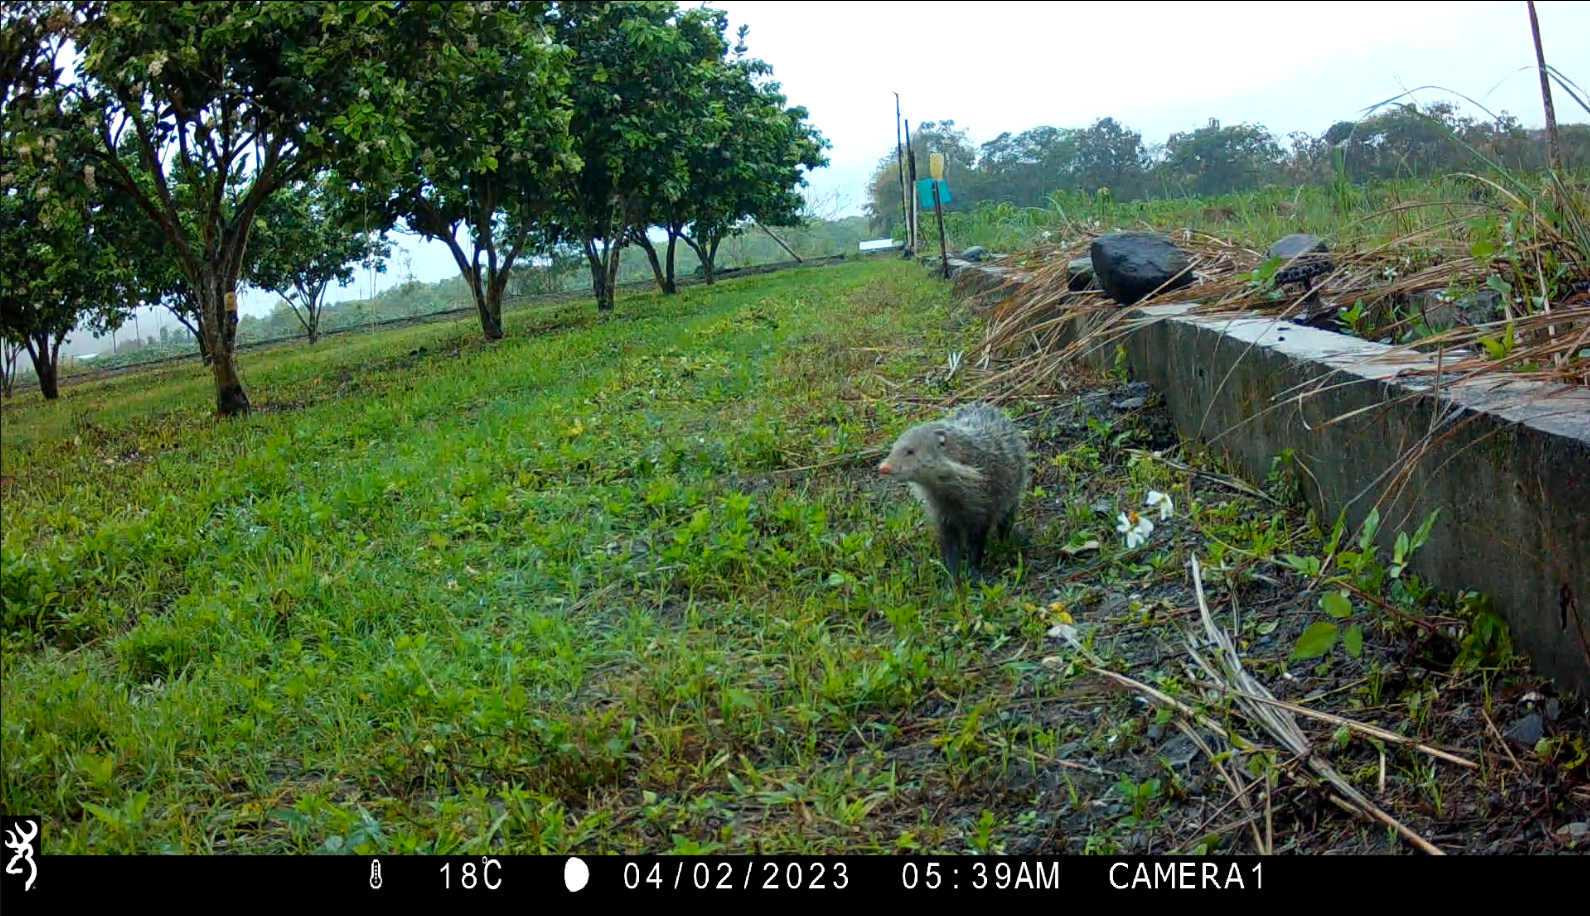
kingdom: Animalia
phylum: Chordata
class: Mammalia
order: Carnivora
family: Herpestidae
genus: Herpestes
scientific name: Herpestes urva
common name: Crab-eating mongoose
